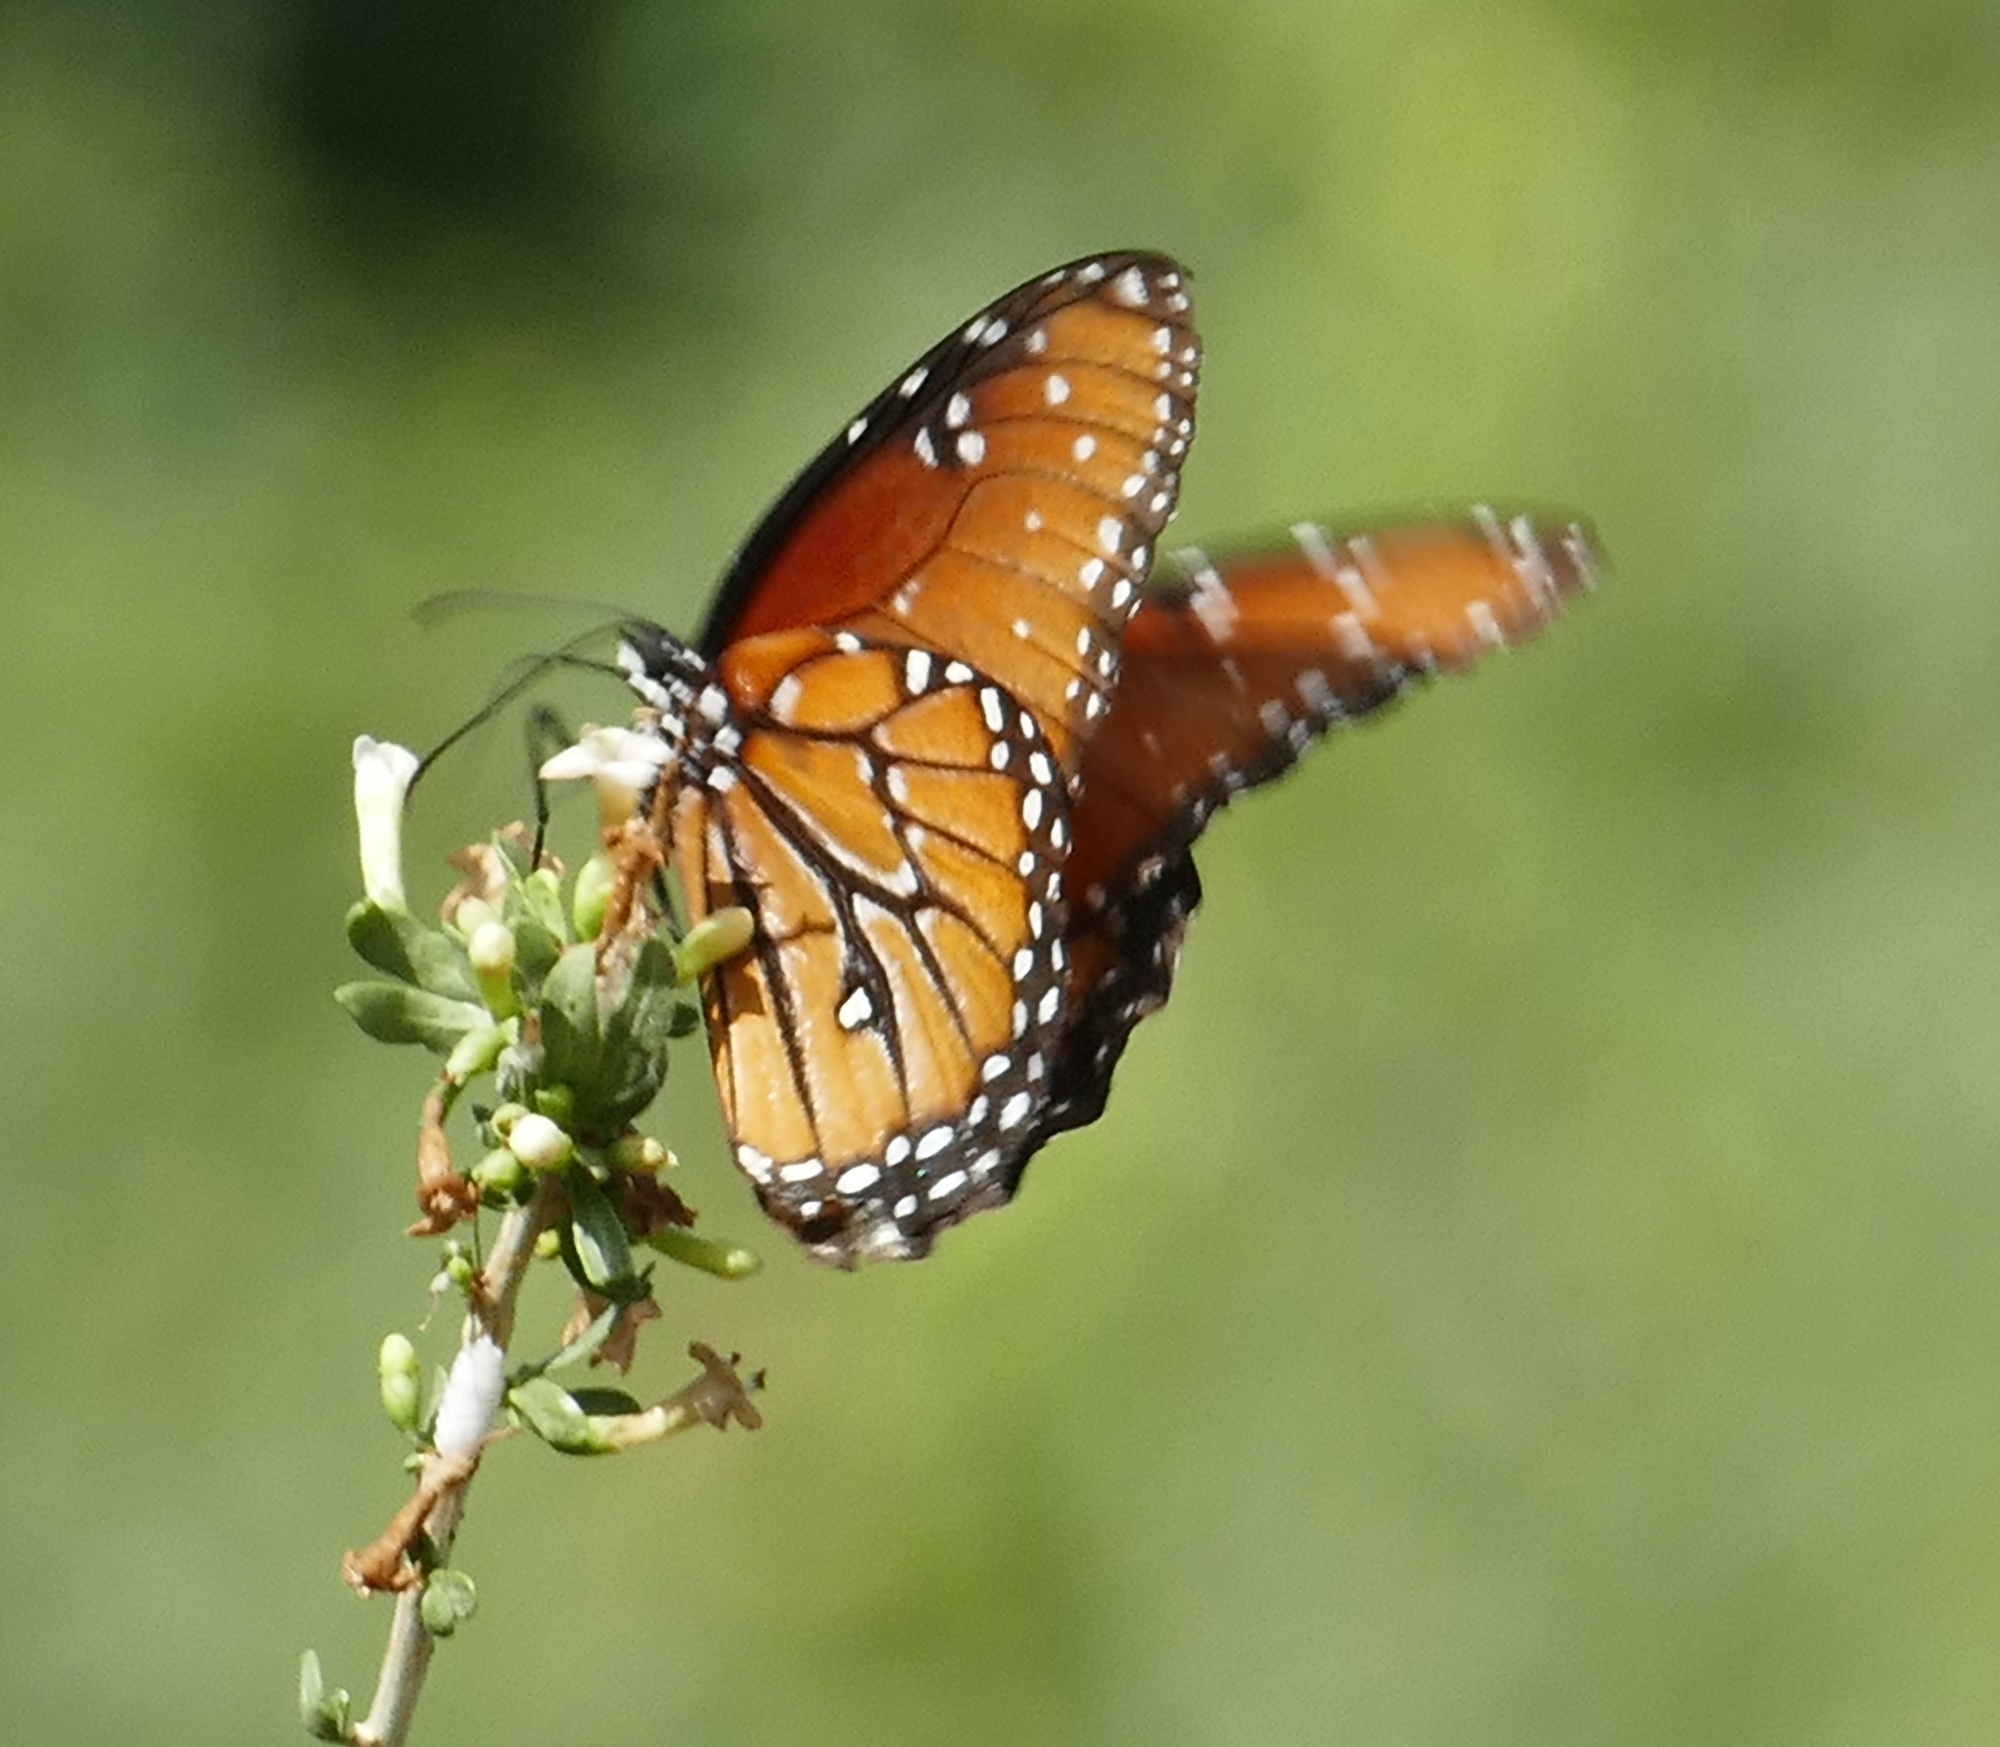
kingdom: Animalia
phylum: Arthropoda
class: Insecta
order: Lepidoptera
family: Nymphalidae
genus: Danaus
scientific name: Danaus gilippus
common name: Queen
